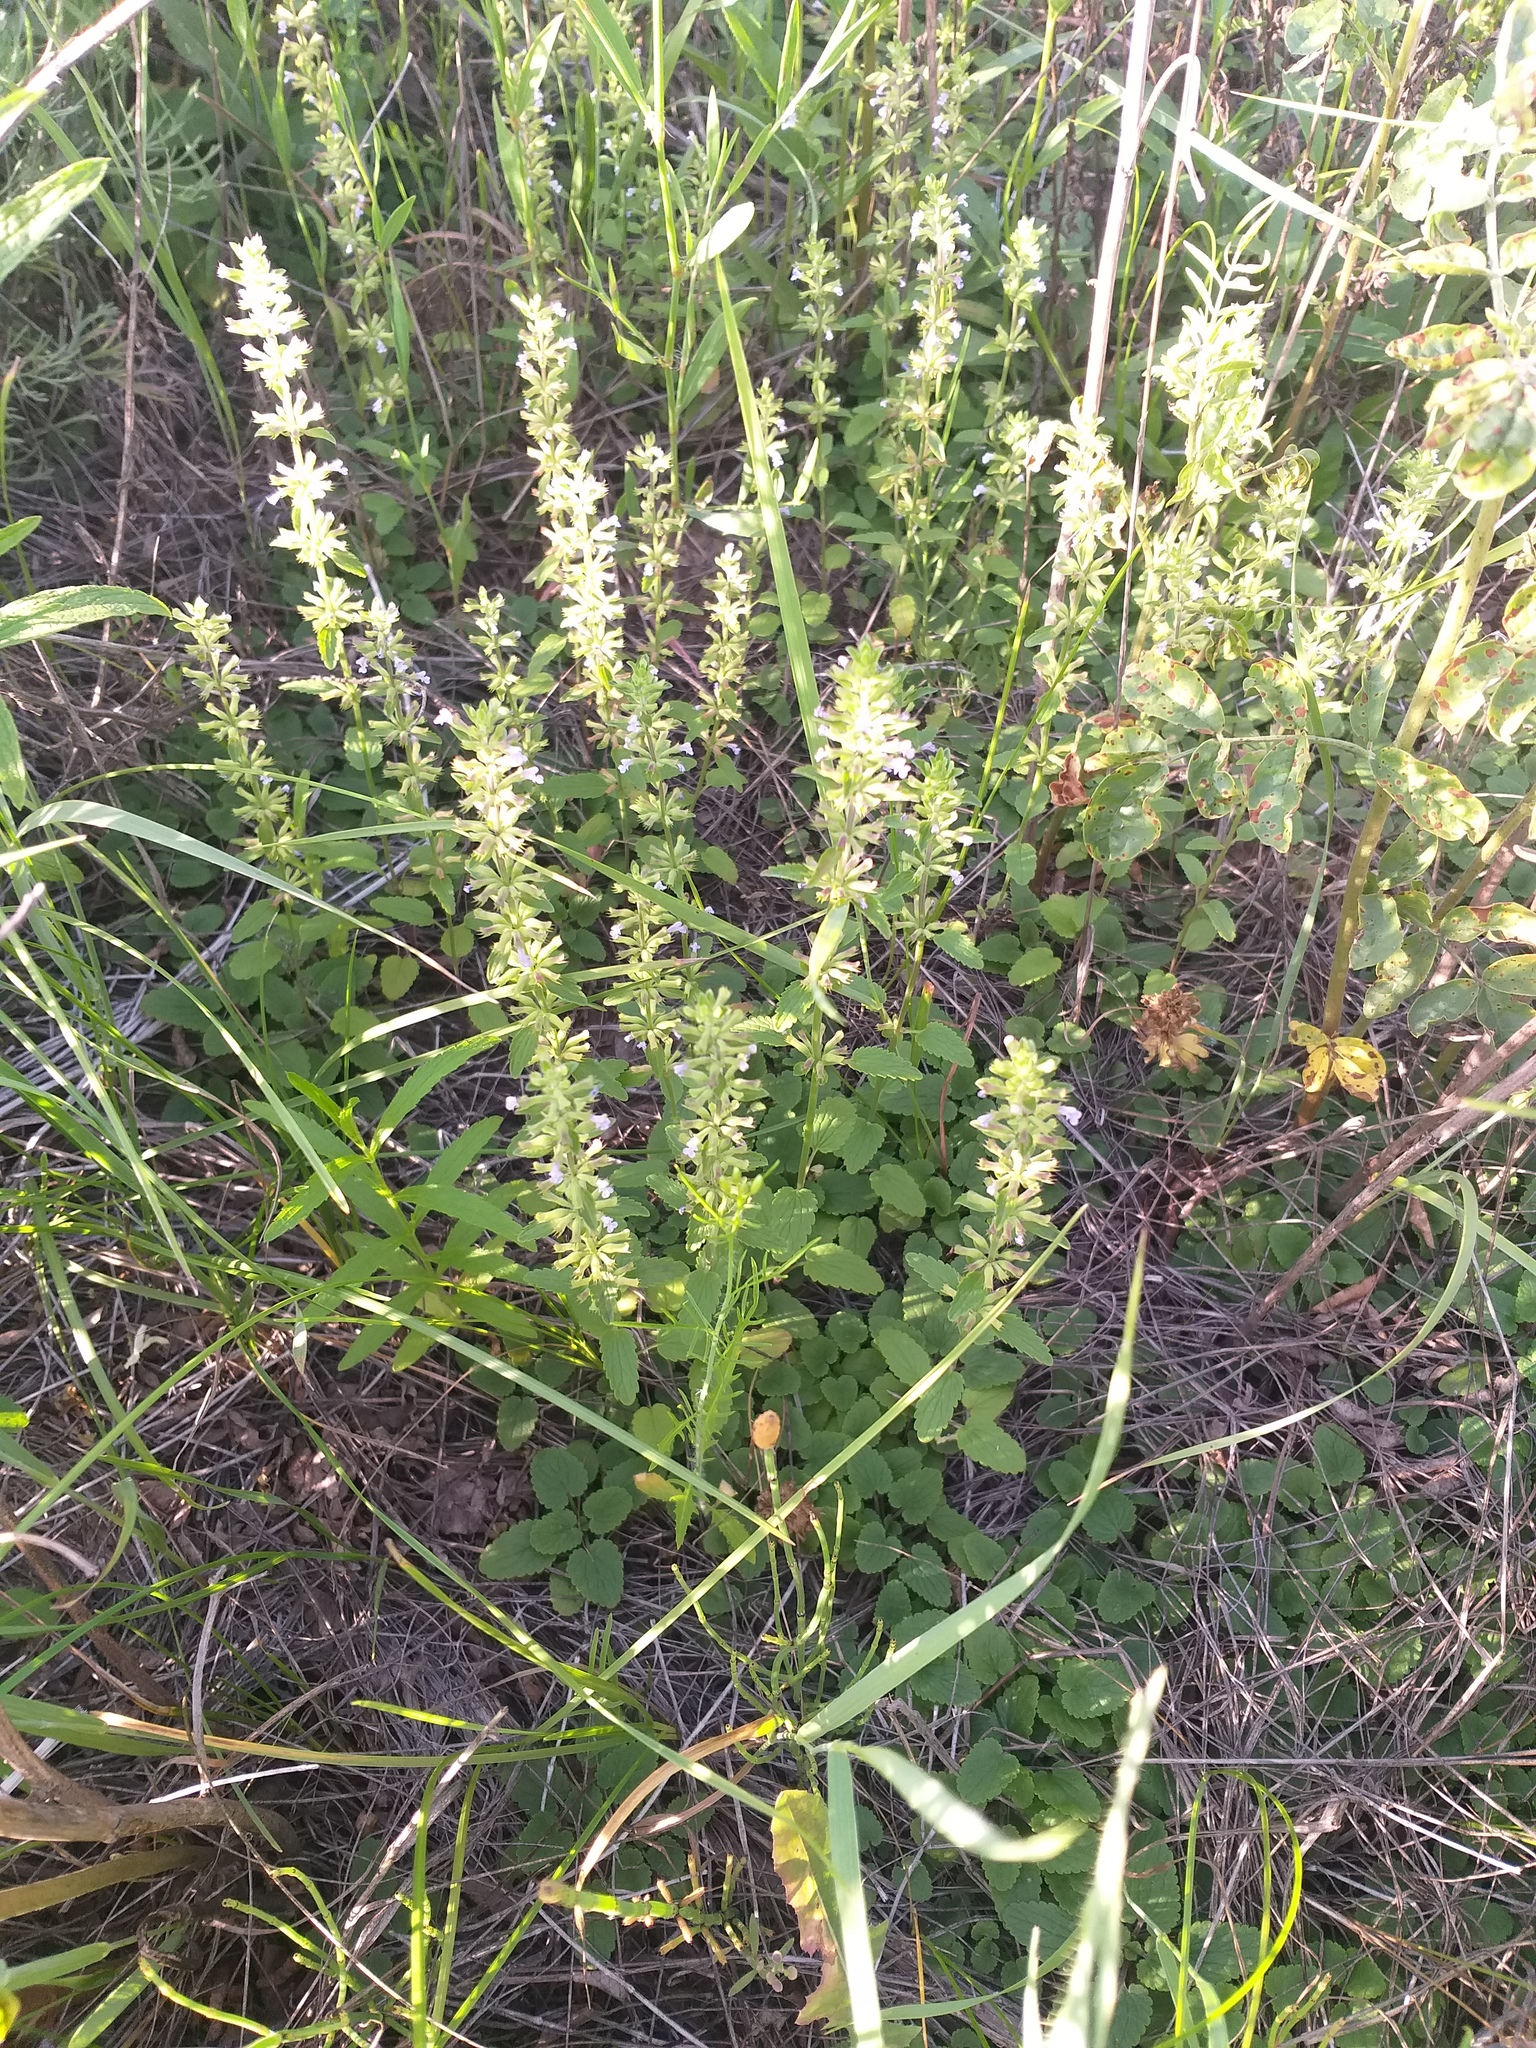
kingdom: Plantae
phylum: Tracheophyta
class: Magnoliopsida
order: Lamiales
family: Lamiaceae
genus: Dracocephalum
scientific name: Dracocephalum thymiflorum
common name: Thymeleaf dragonhead
